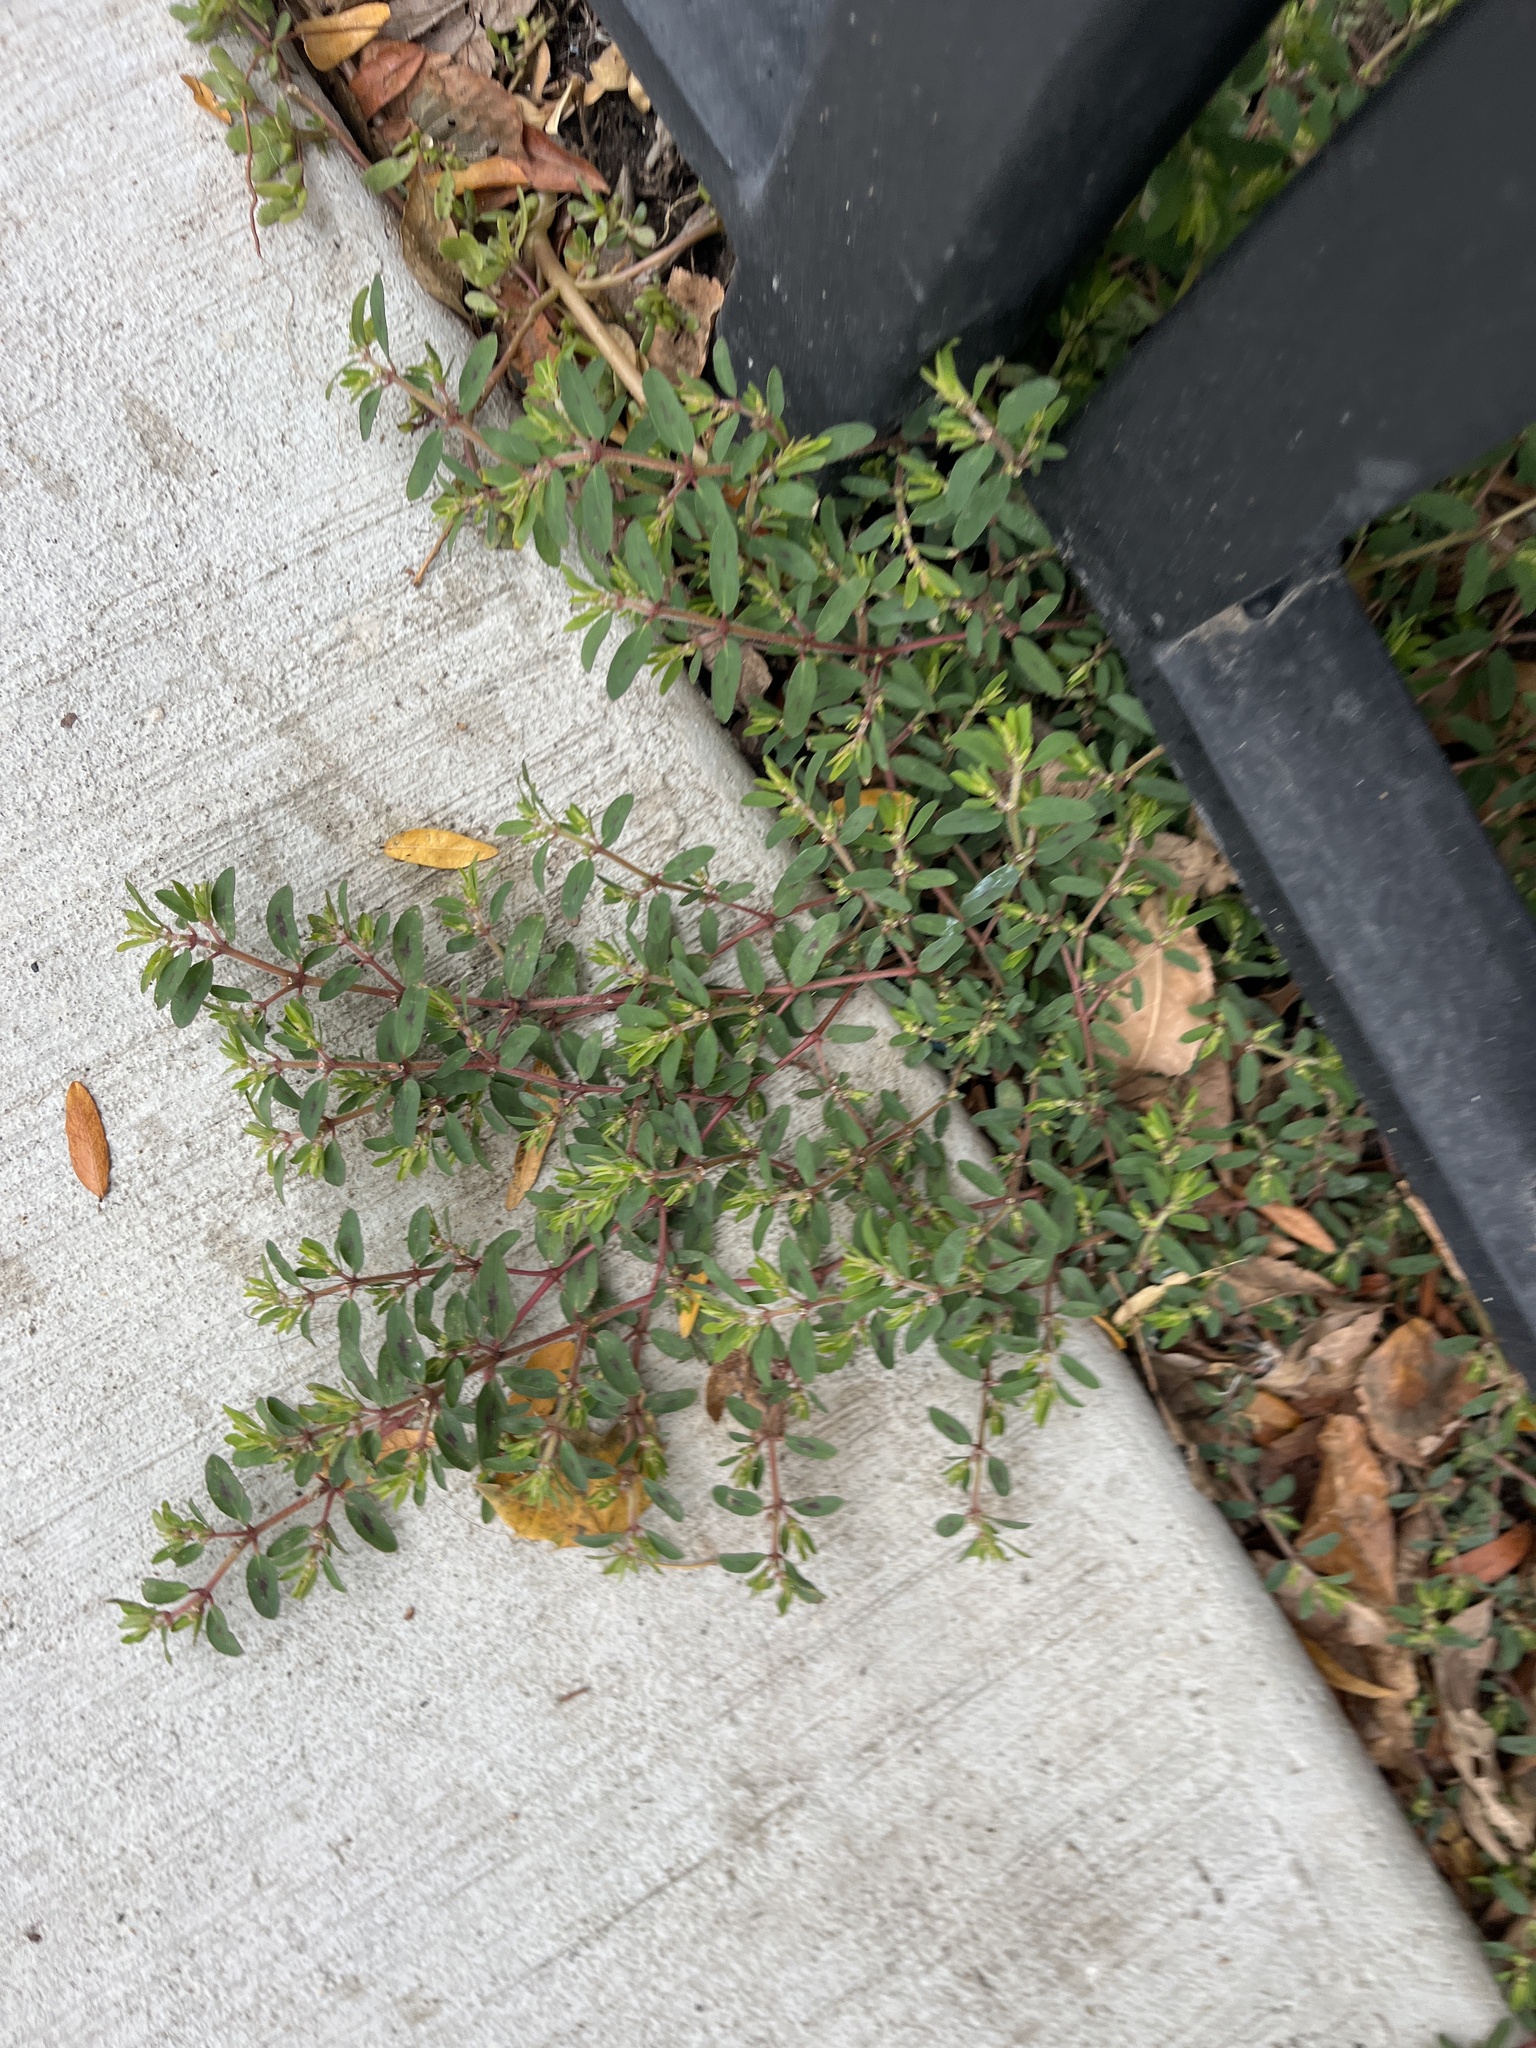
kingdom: Plantae
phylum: Tracheophyta
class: Magnoliopsida
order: Malpighiales
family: Euphorbiaceae
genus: Euphorbia
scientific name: Euphorbia maculata
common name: Spotted spurge
